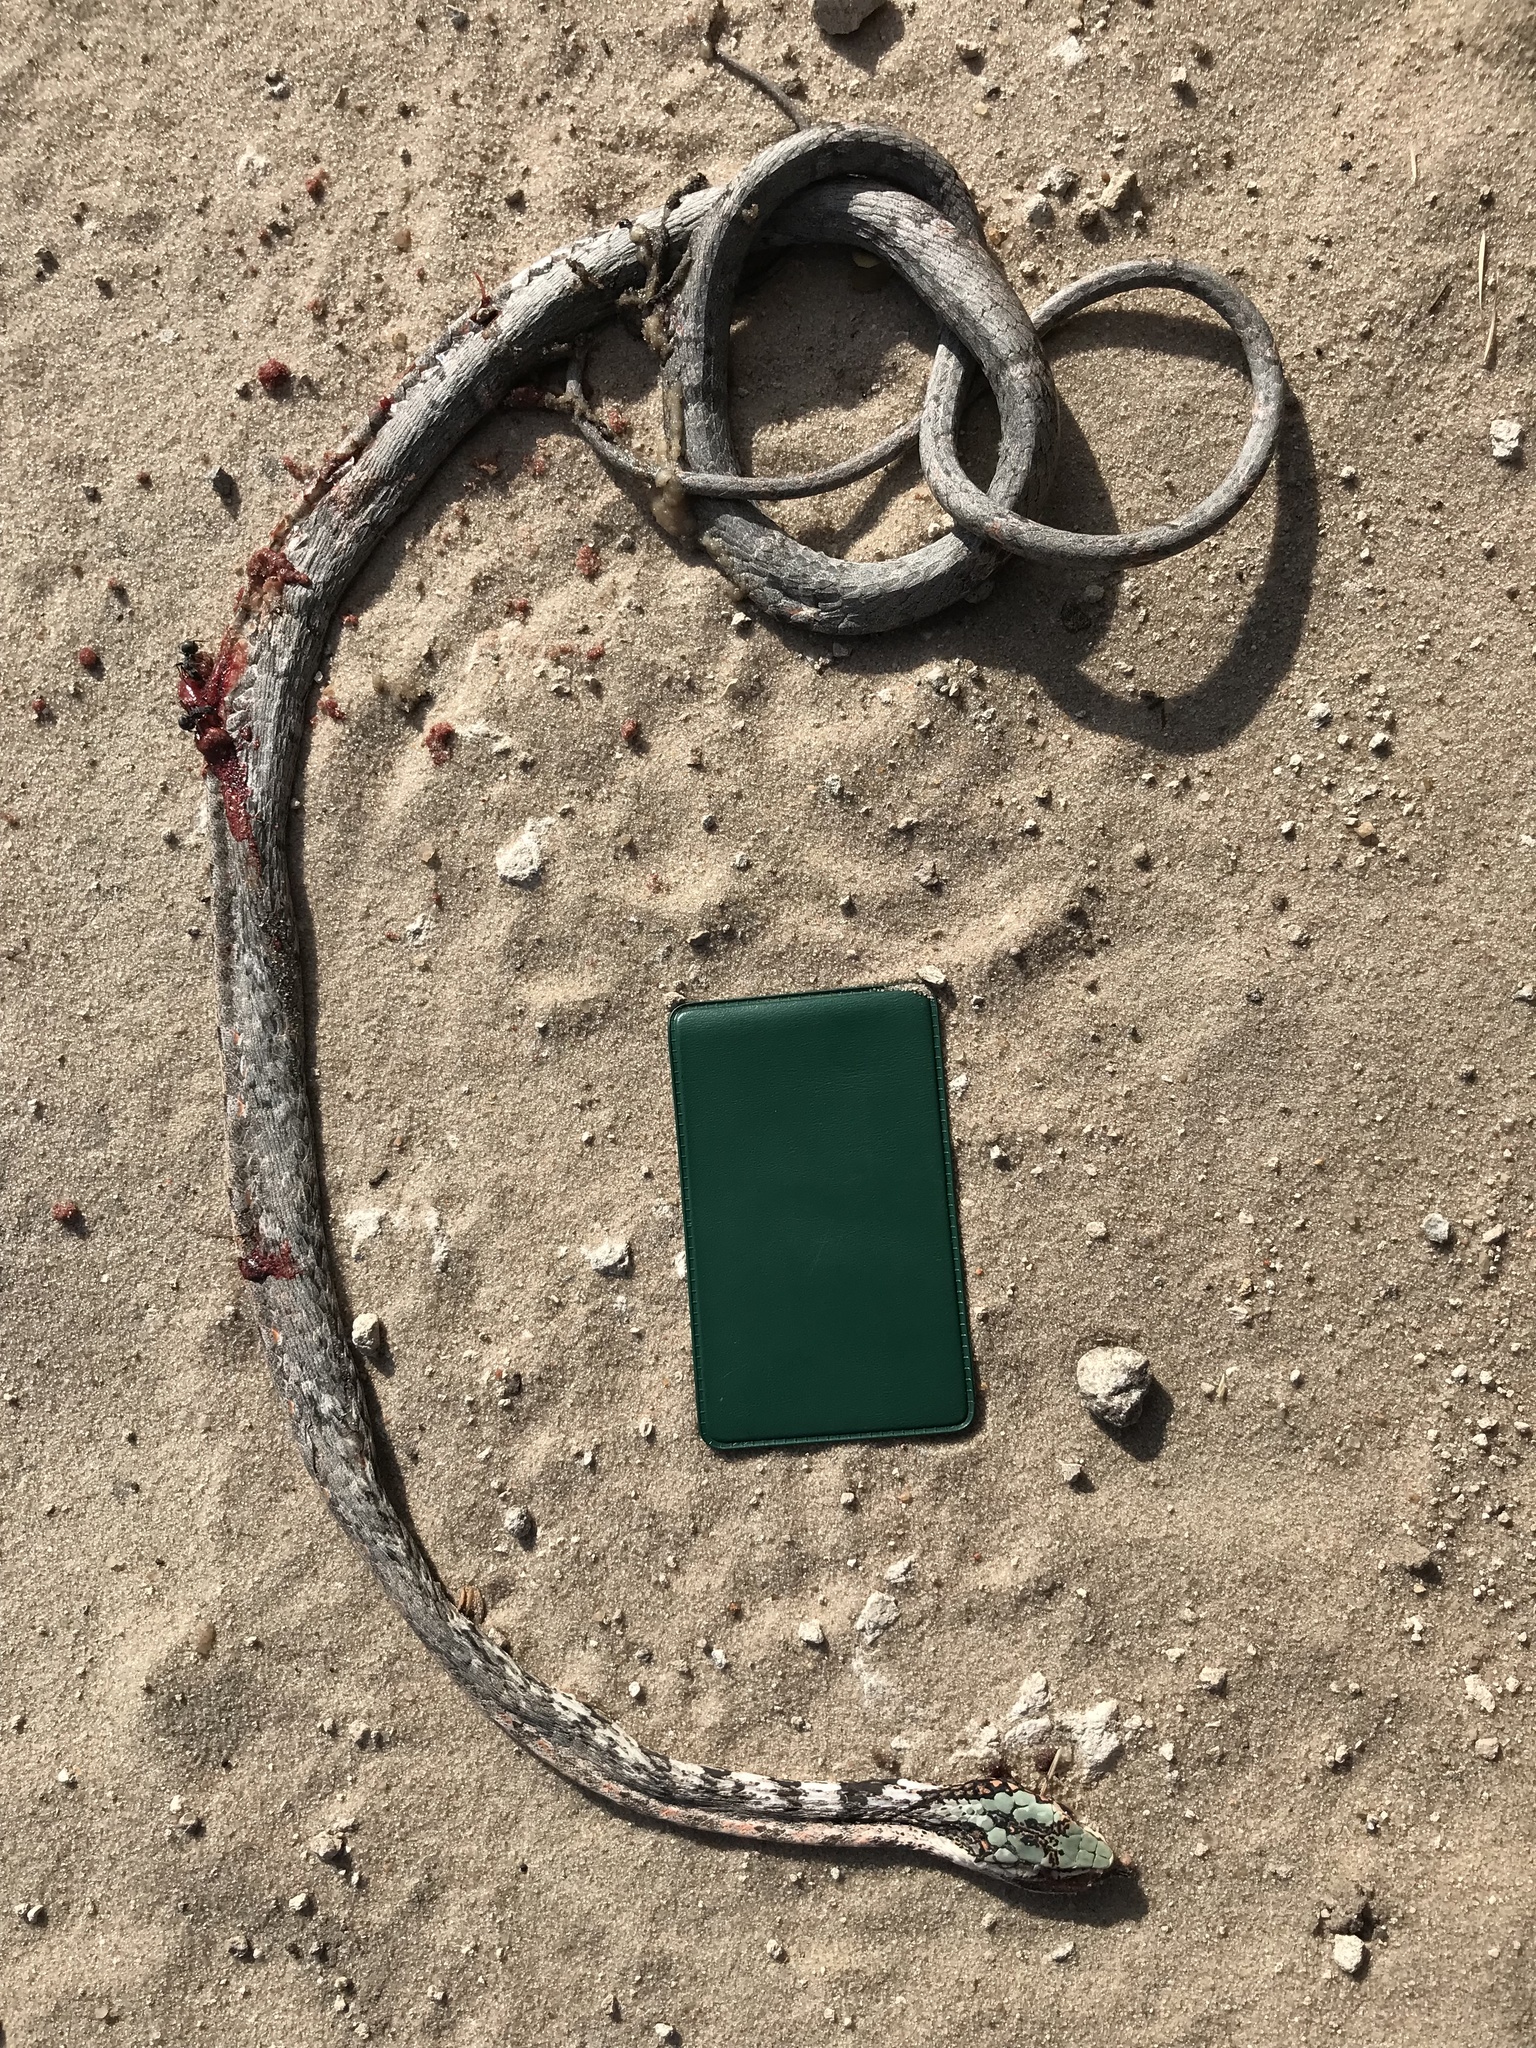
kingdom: Animalia
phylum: Chordata
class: Squamata
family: Colubridae
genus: Thelotornis
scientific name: Thelotornis capensis
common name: Savanna vine snake
